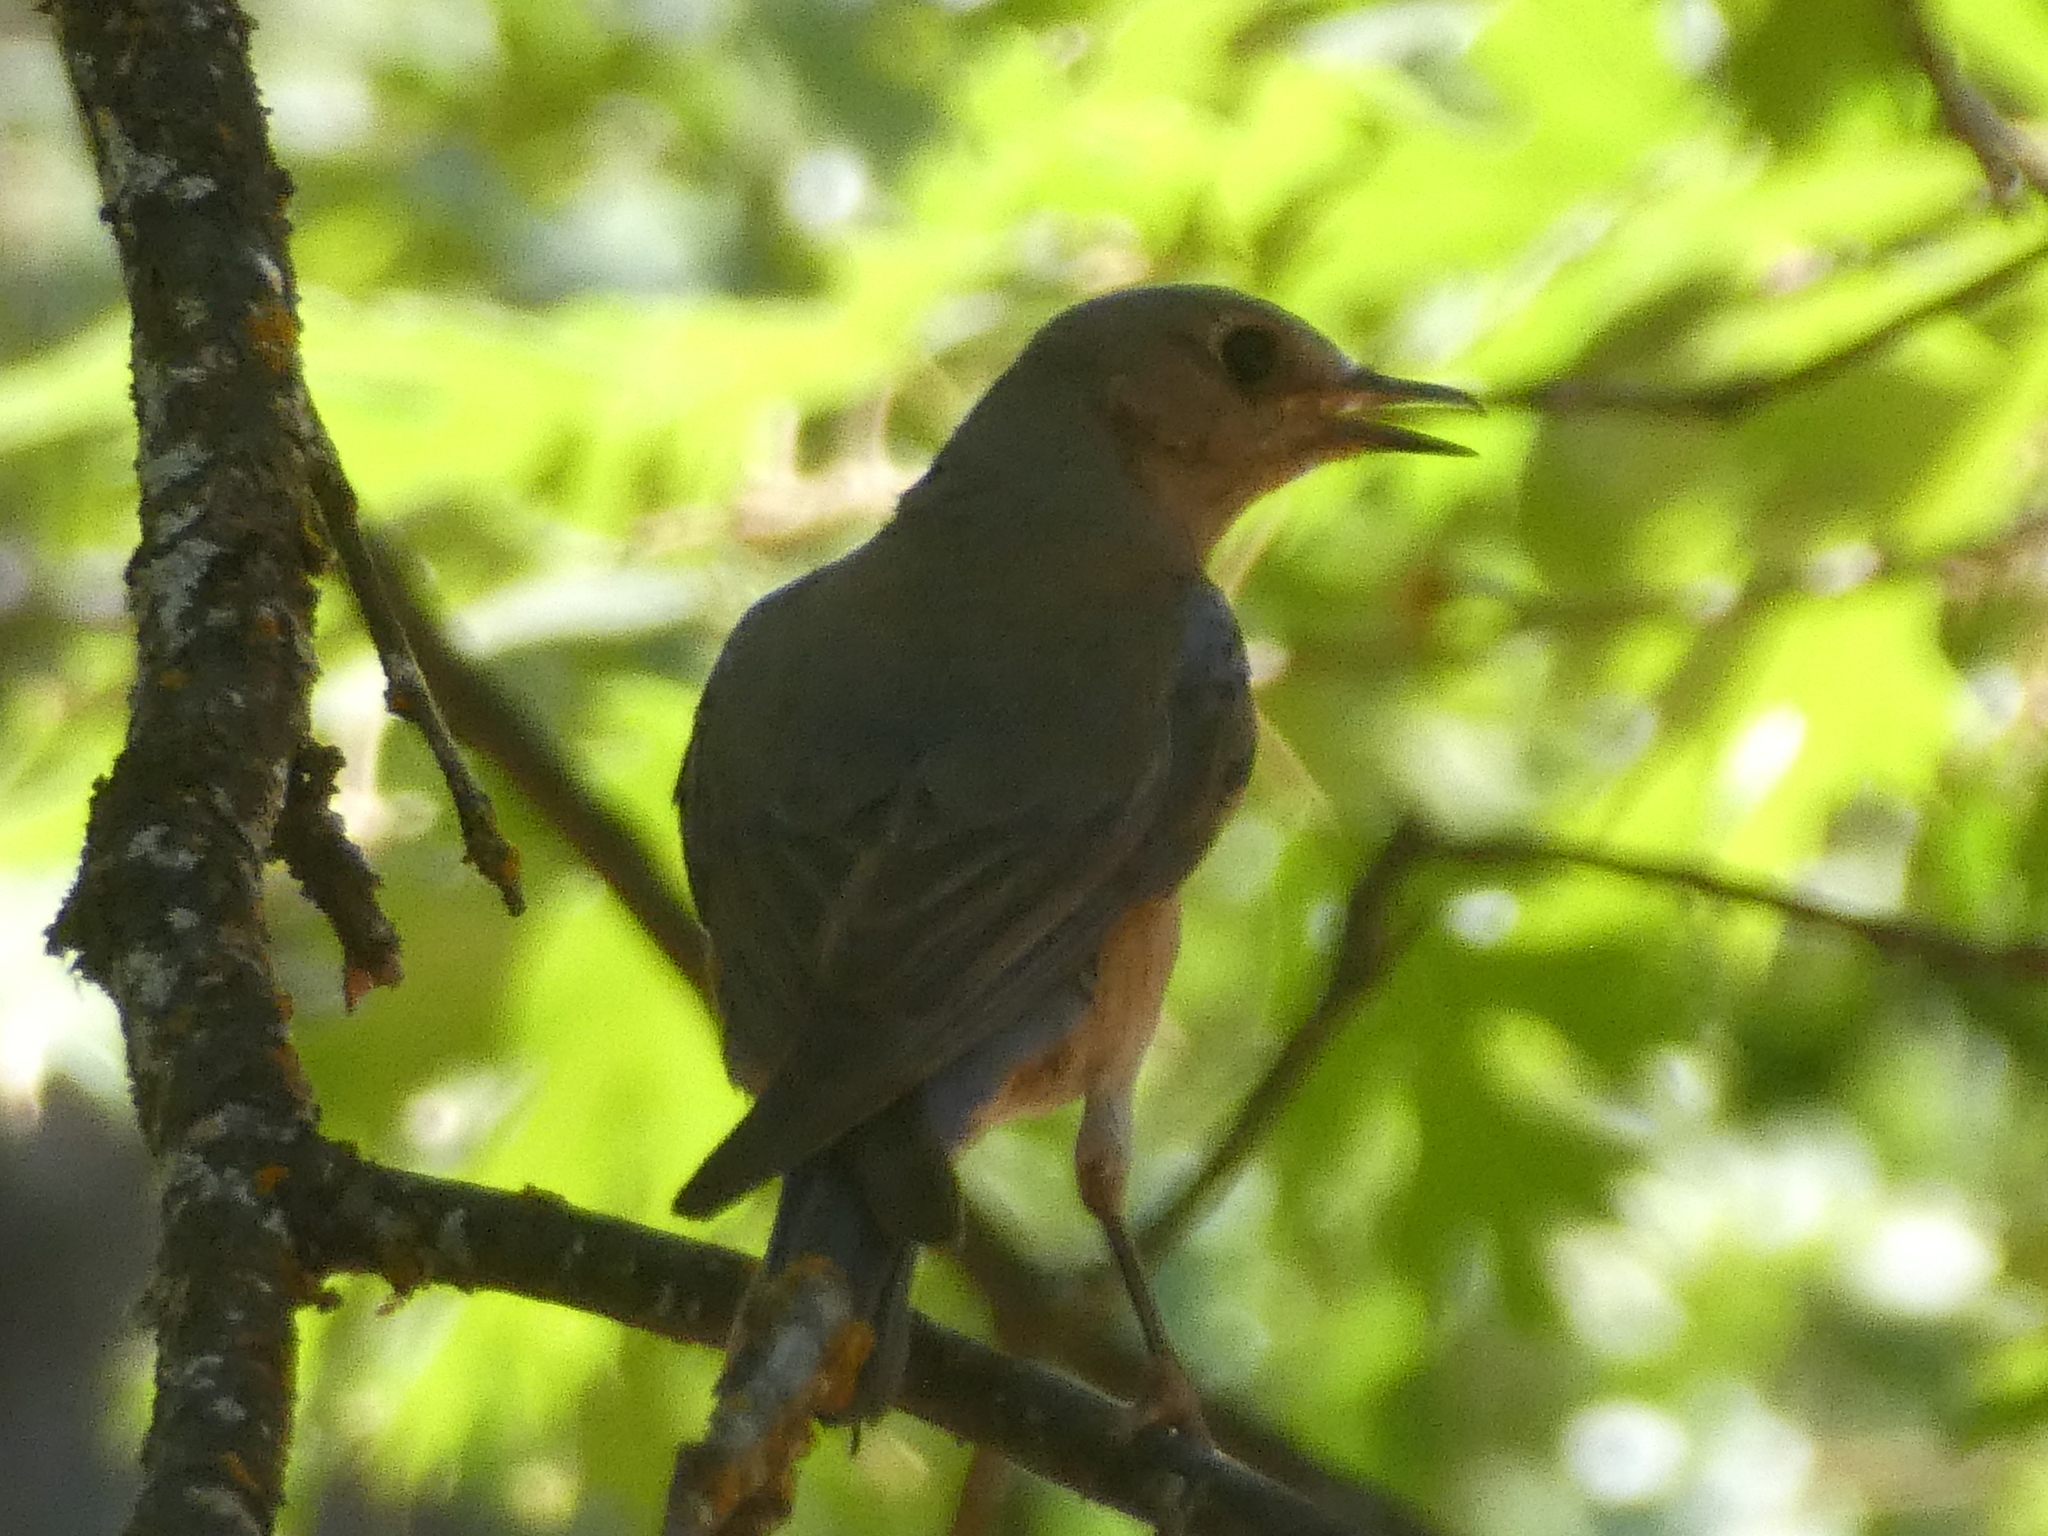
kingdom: Animalia
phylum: Chordata
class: Aves
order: Passeriformes
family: Turdidae
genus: Sialia
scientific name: Sialia mexicana
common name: Western bluebird
